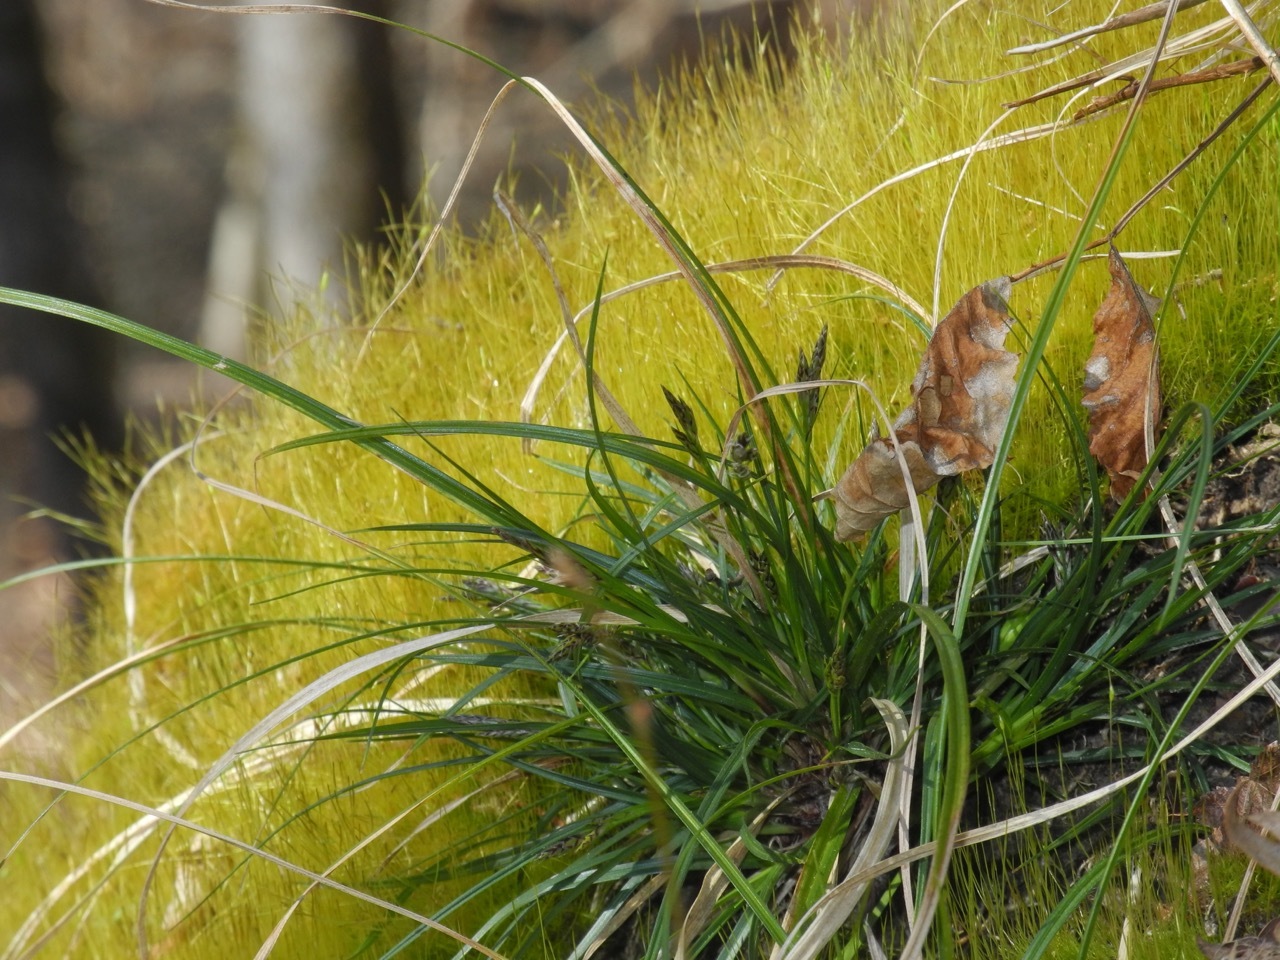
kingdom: Plantae
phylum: Tracheophyta
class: Magnoliopsida
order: Fagales
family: Fagaceae
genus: Quercus
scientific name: Quercus rubra
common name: Red oak
